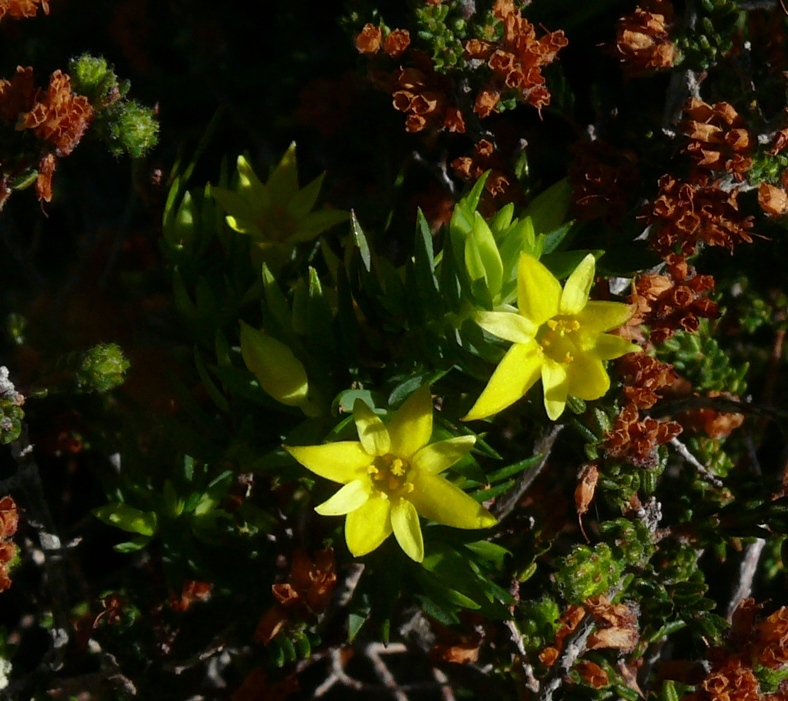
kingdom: Plantae
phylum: Tracheophyta
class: Magnoliopsida
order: Malvales
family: Thymelaeaceae
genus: Gnidia
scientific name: Gnidia juniperifolia
